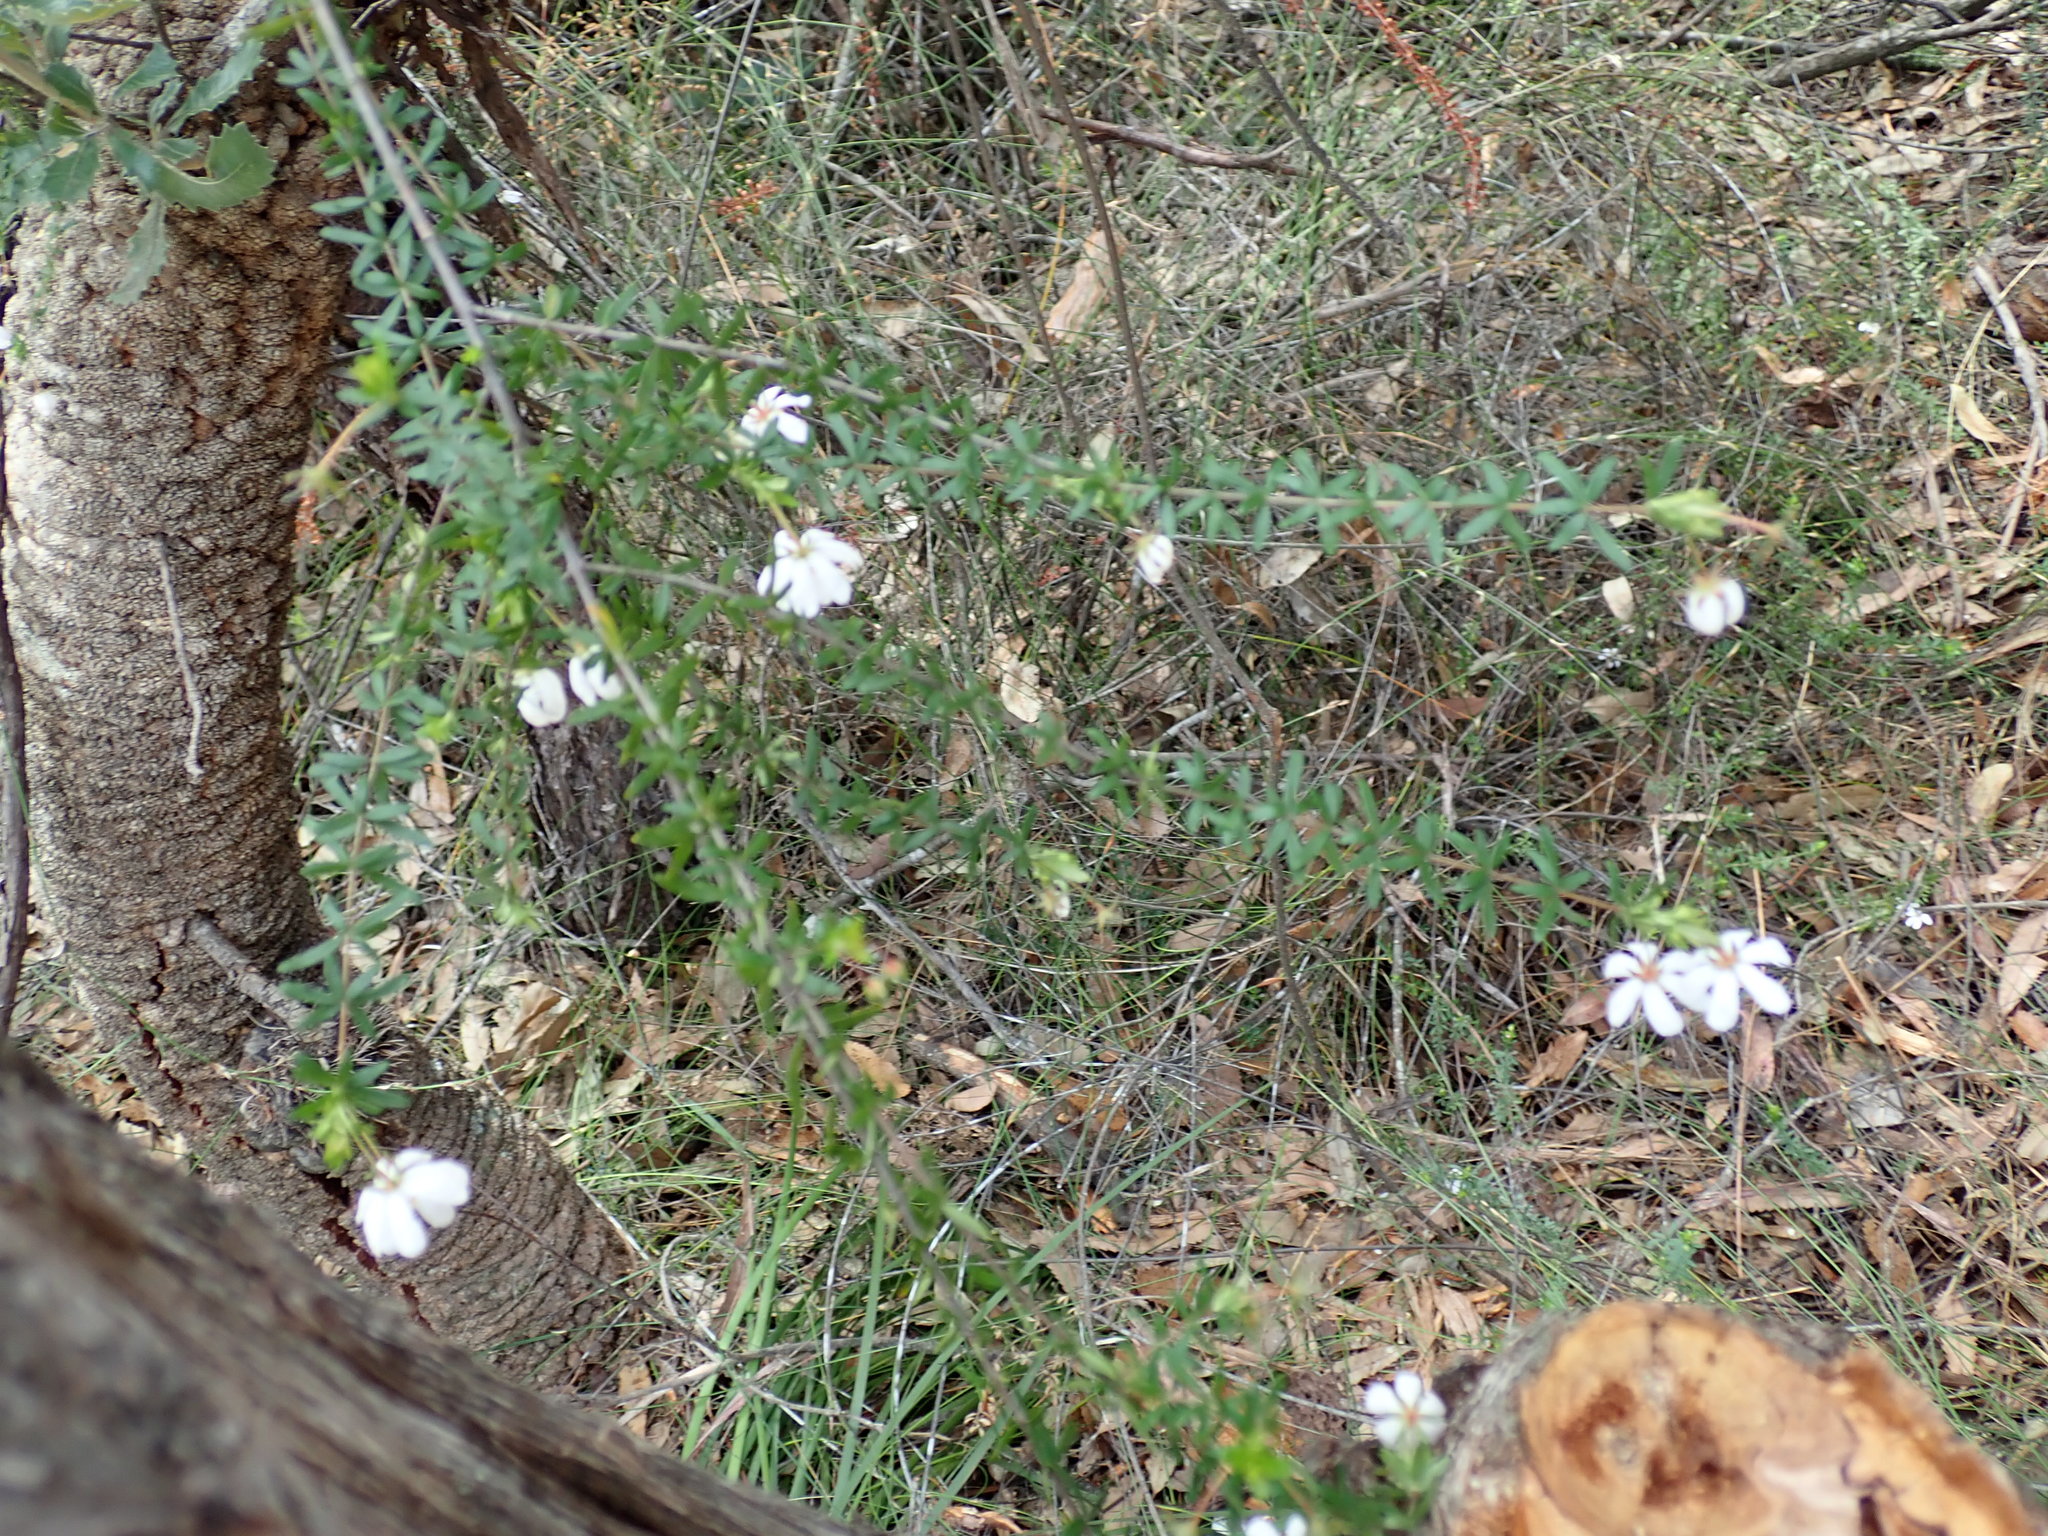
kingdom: Plantae
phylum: Tracheophyta
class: Magnoliopsida
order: Oxalidales
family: Cunoniaceae
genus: Bauera
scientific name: Bauera rubioides
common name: River-rose
